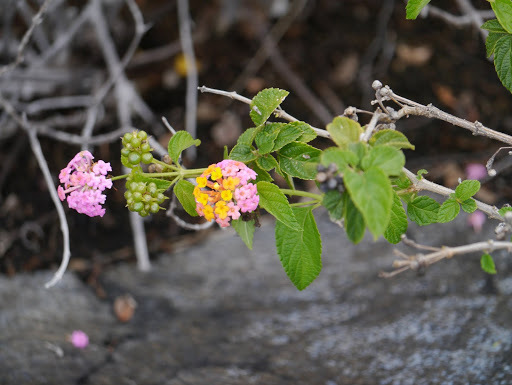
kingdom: Plantae
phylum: Tracheophyta
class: Magnoliopsida
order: Lamiales
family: Verbenaceae
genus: Lantana
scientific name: Lantana camara
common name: Lantana
